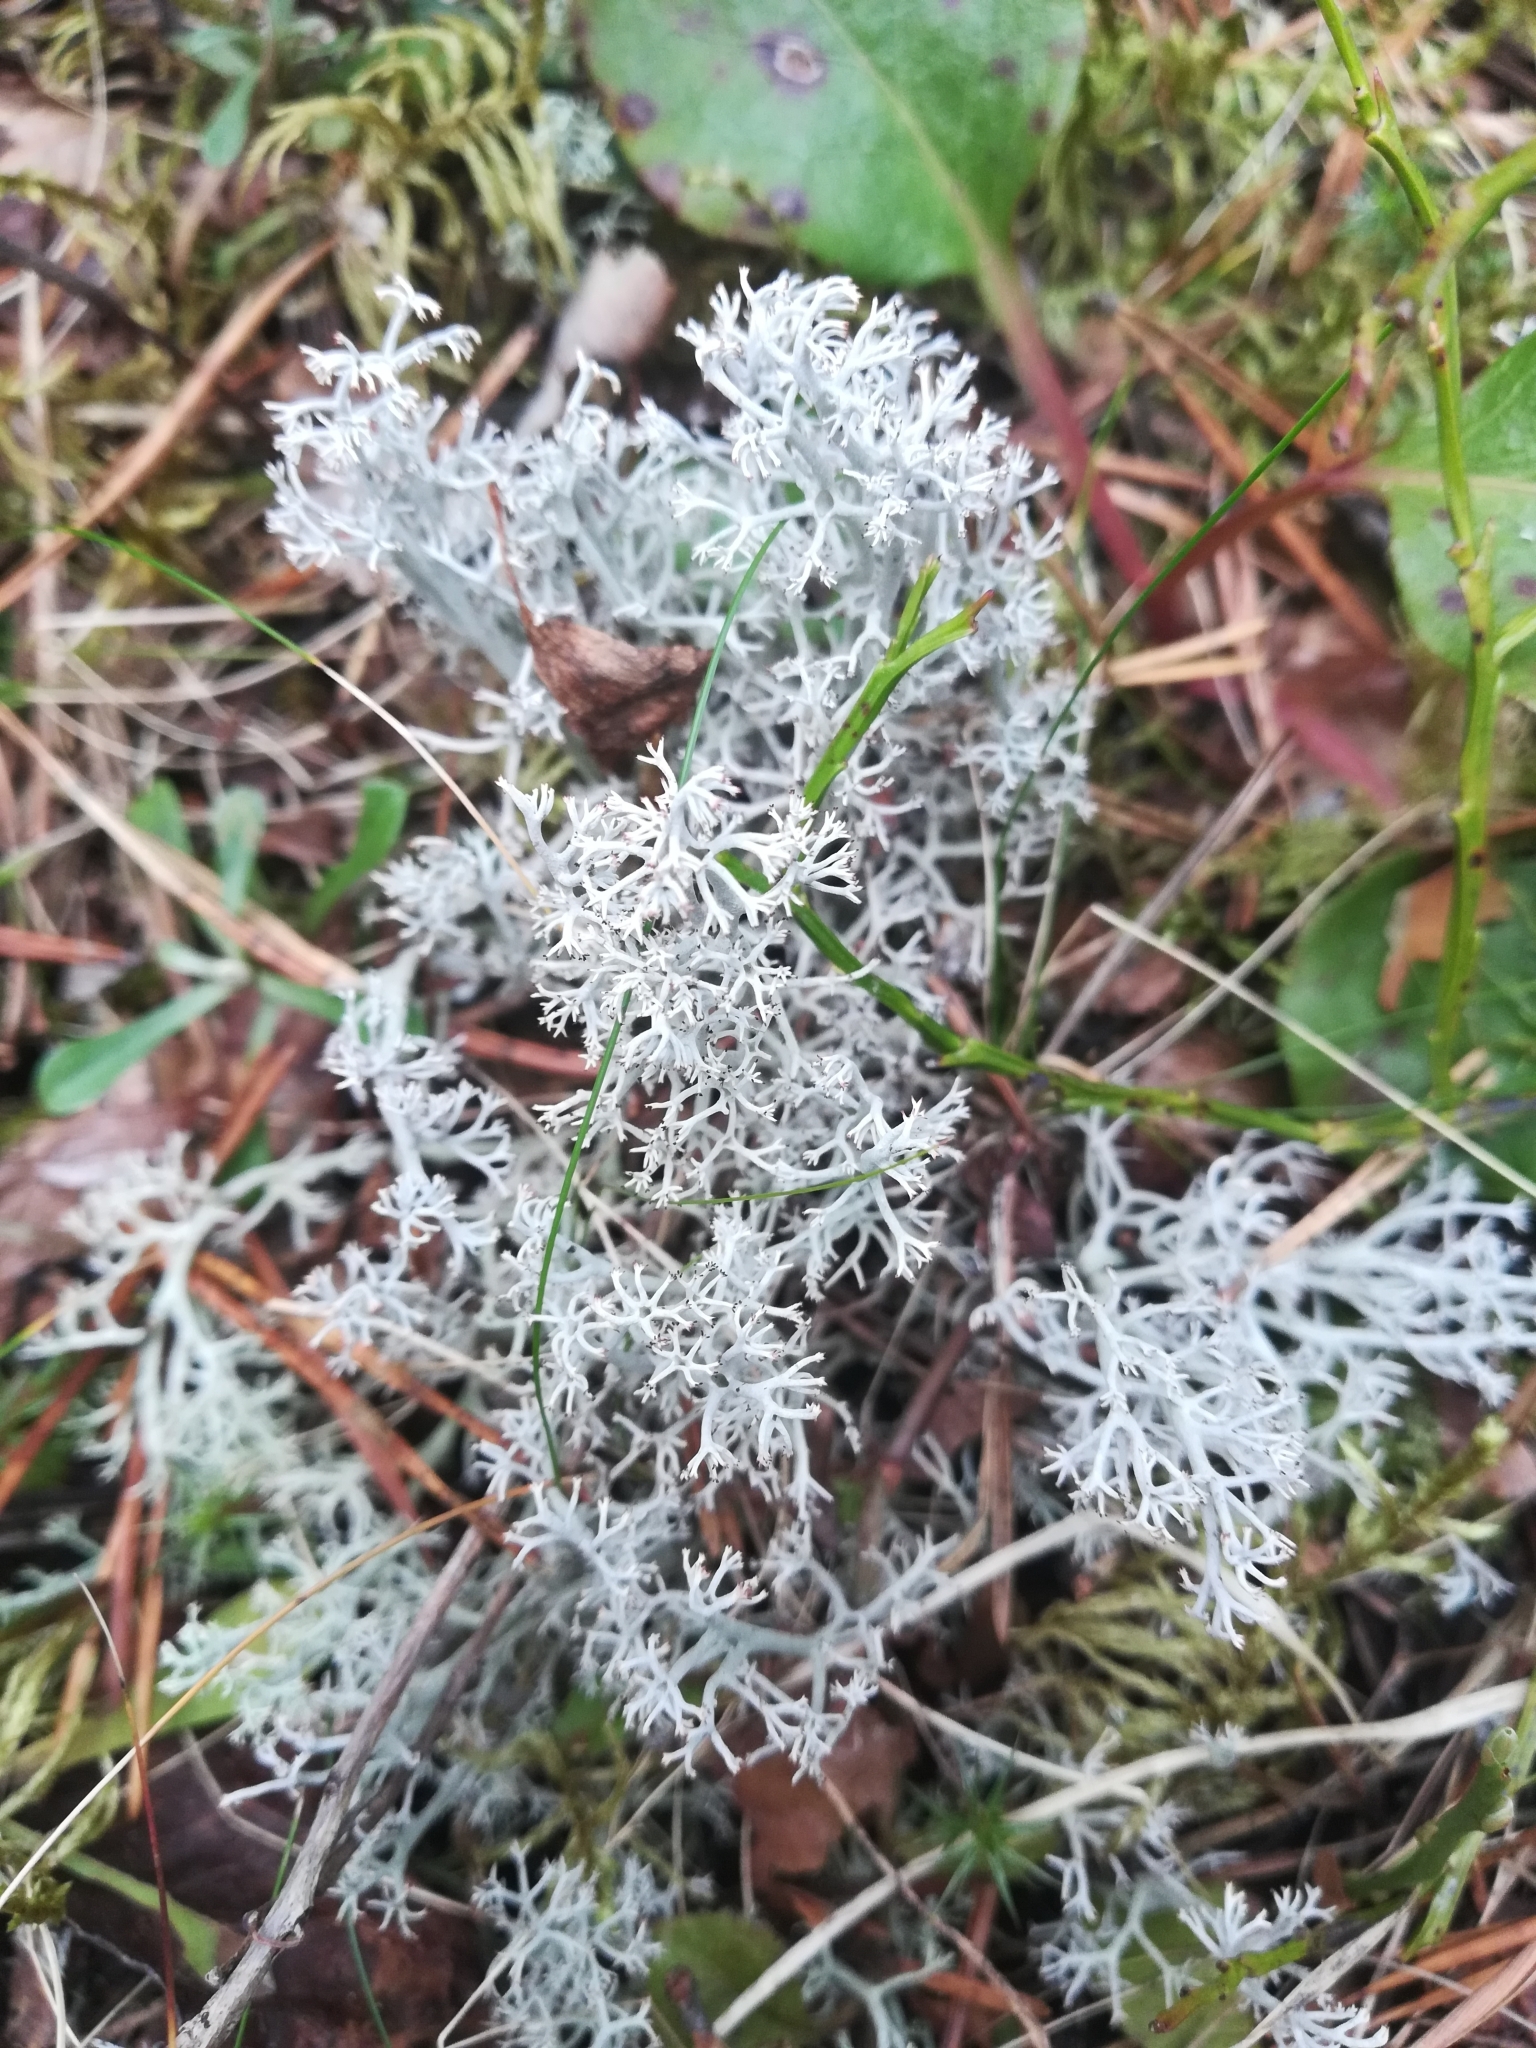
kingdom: Fungi
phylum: Ascomycota
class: Lecanoromycetes
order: Lecanorales
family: Cladoniaceae
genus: Cladonia
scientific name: Cladonia rangiferina
